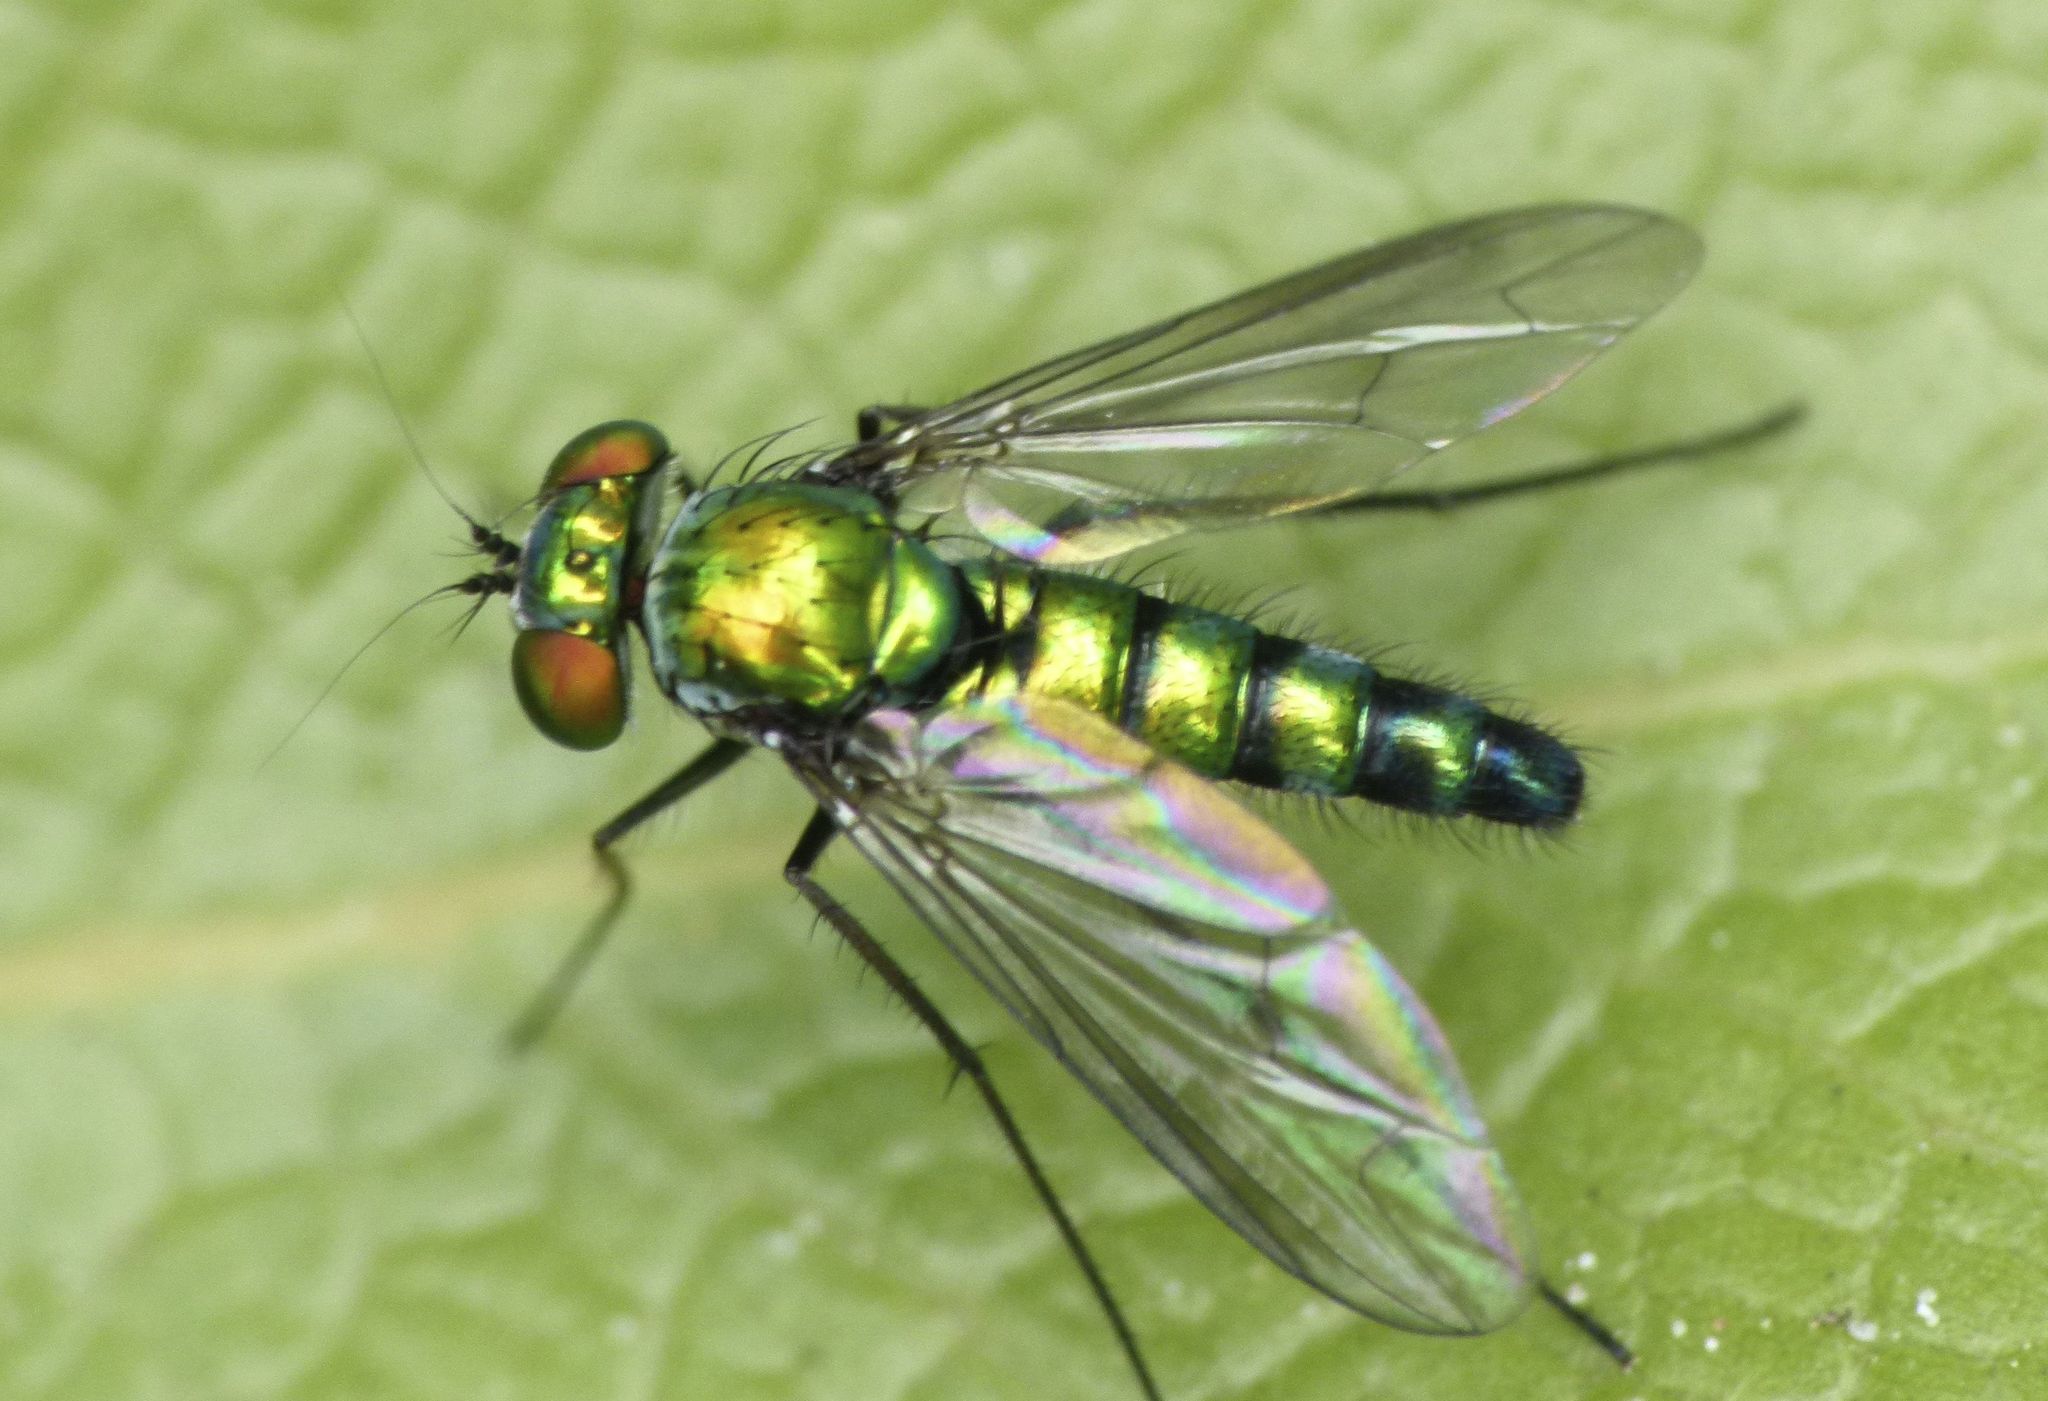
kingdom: Animalia
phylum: Arthropoda
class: Insecta
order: Diptera
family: Dolichopodidae
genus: Condylostylus
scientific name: Condylostylus longicornis
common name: Long-legged fly
